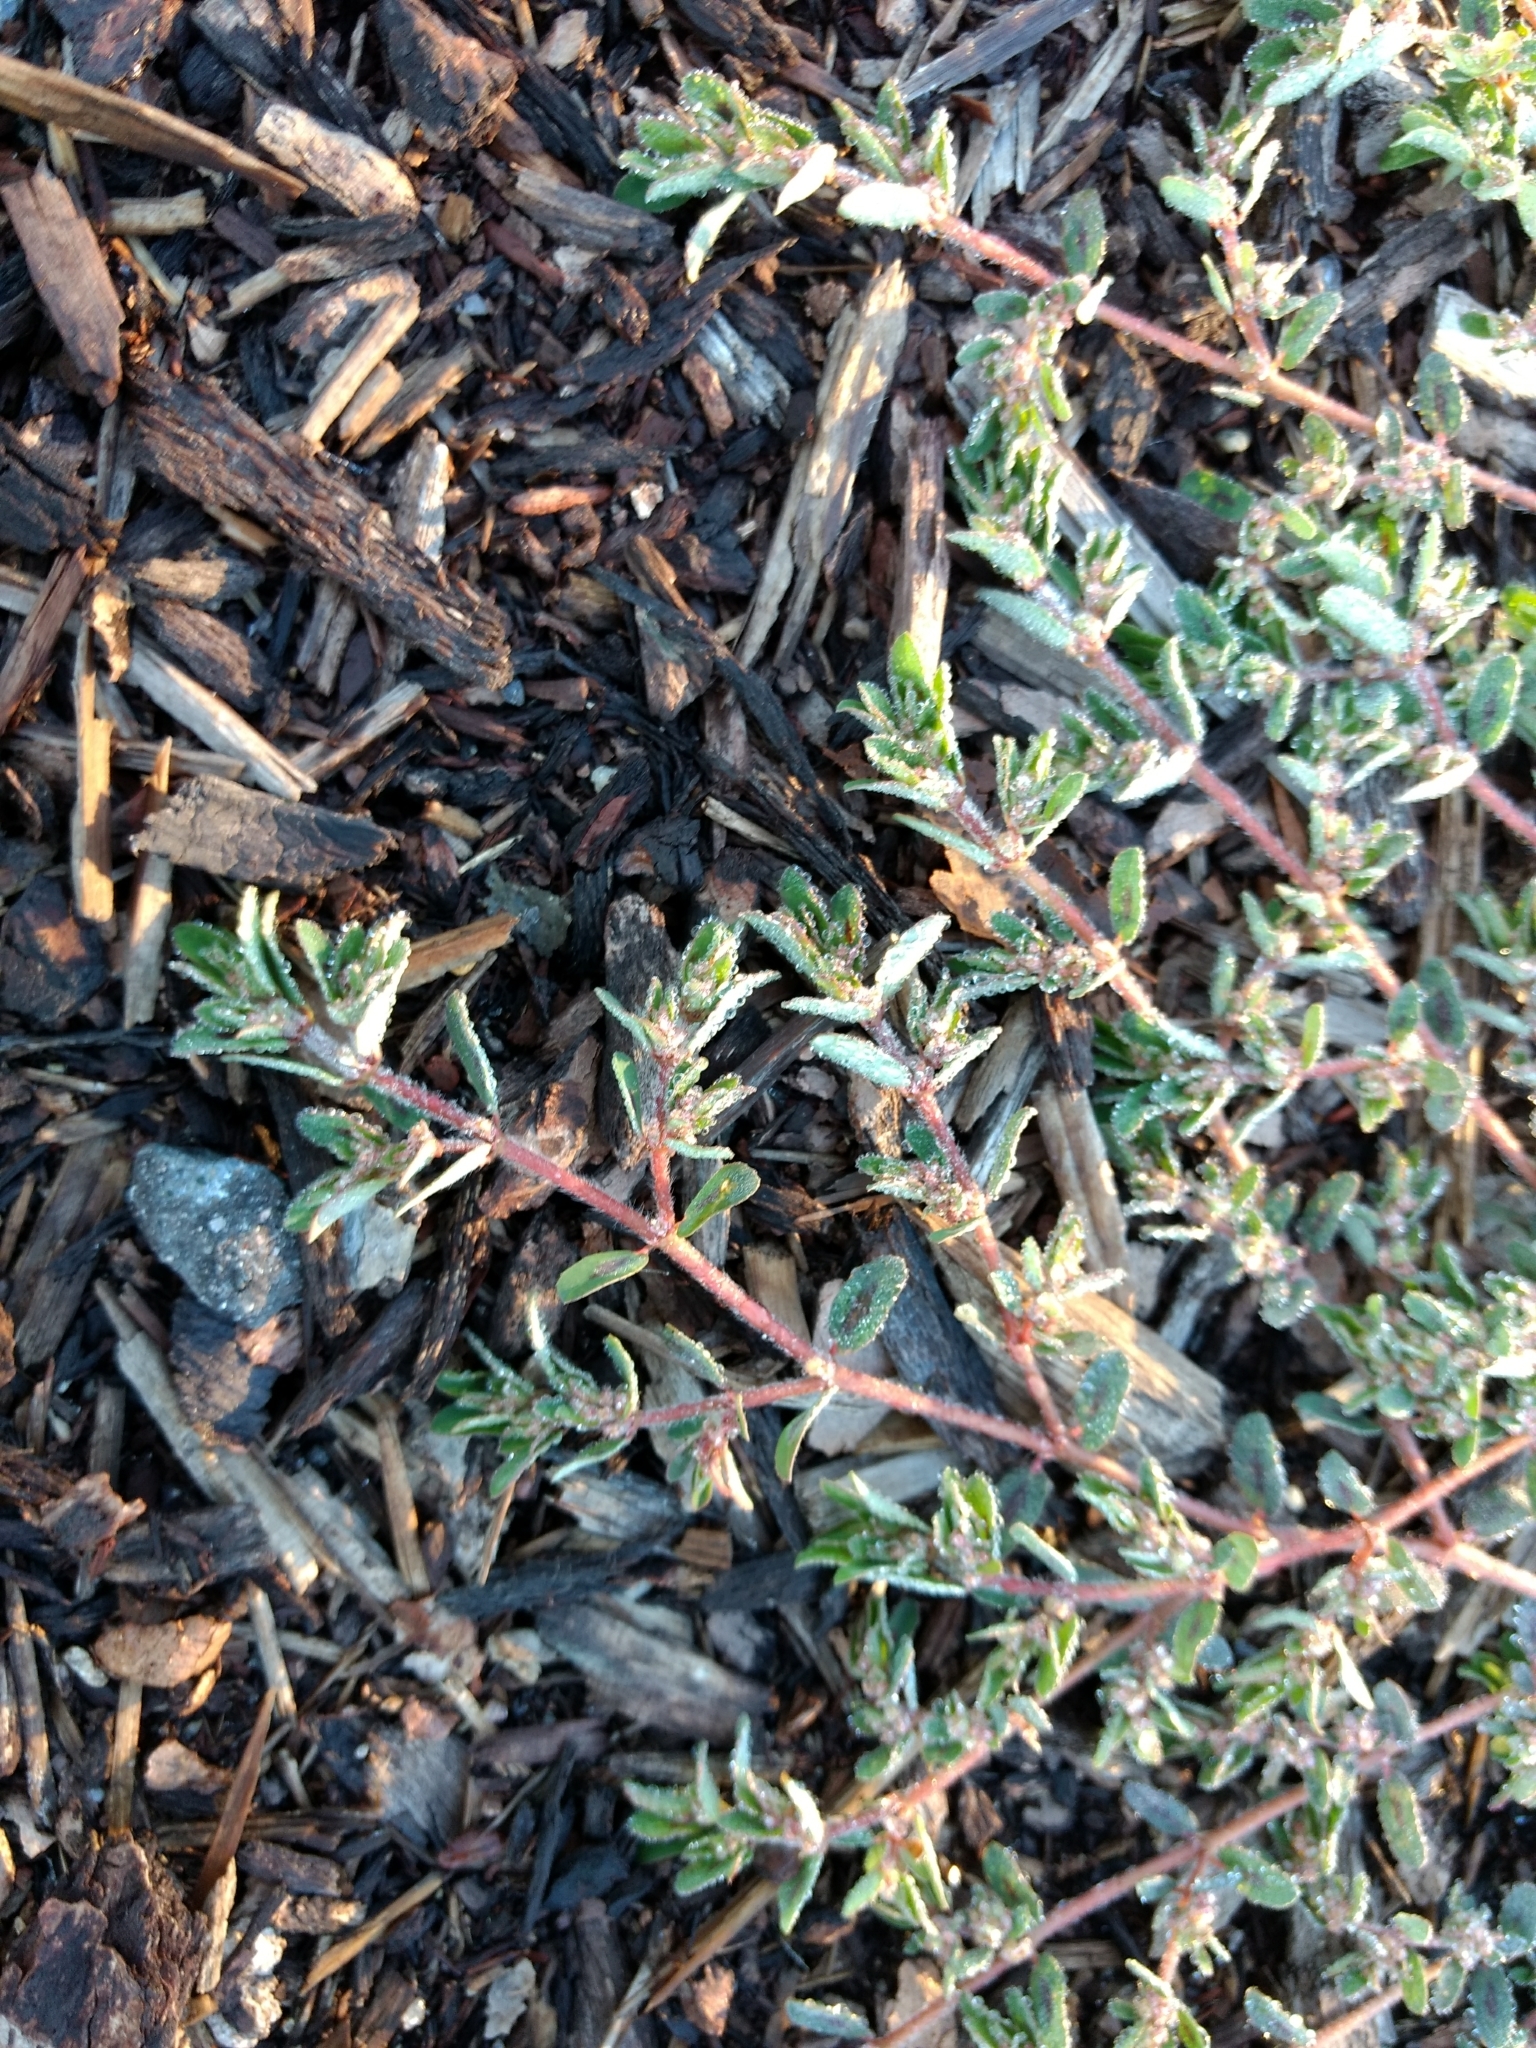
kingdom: Plantae
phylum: Tracheophyta
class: Magnoliopsida
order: Malpighiales
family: Euphorbiaceae
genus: Euphorbia
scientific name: Euphorbia maculata
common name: Spotted spurge
